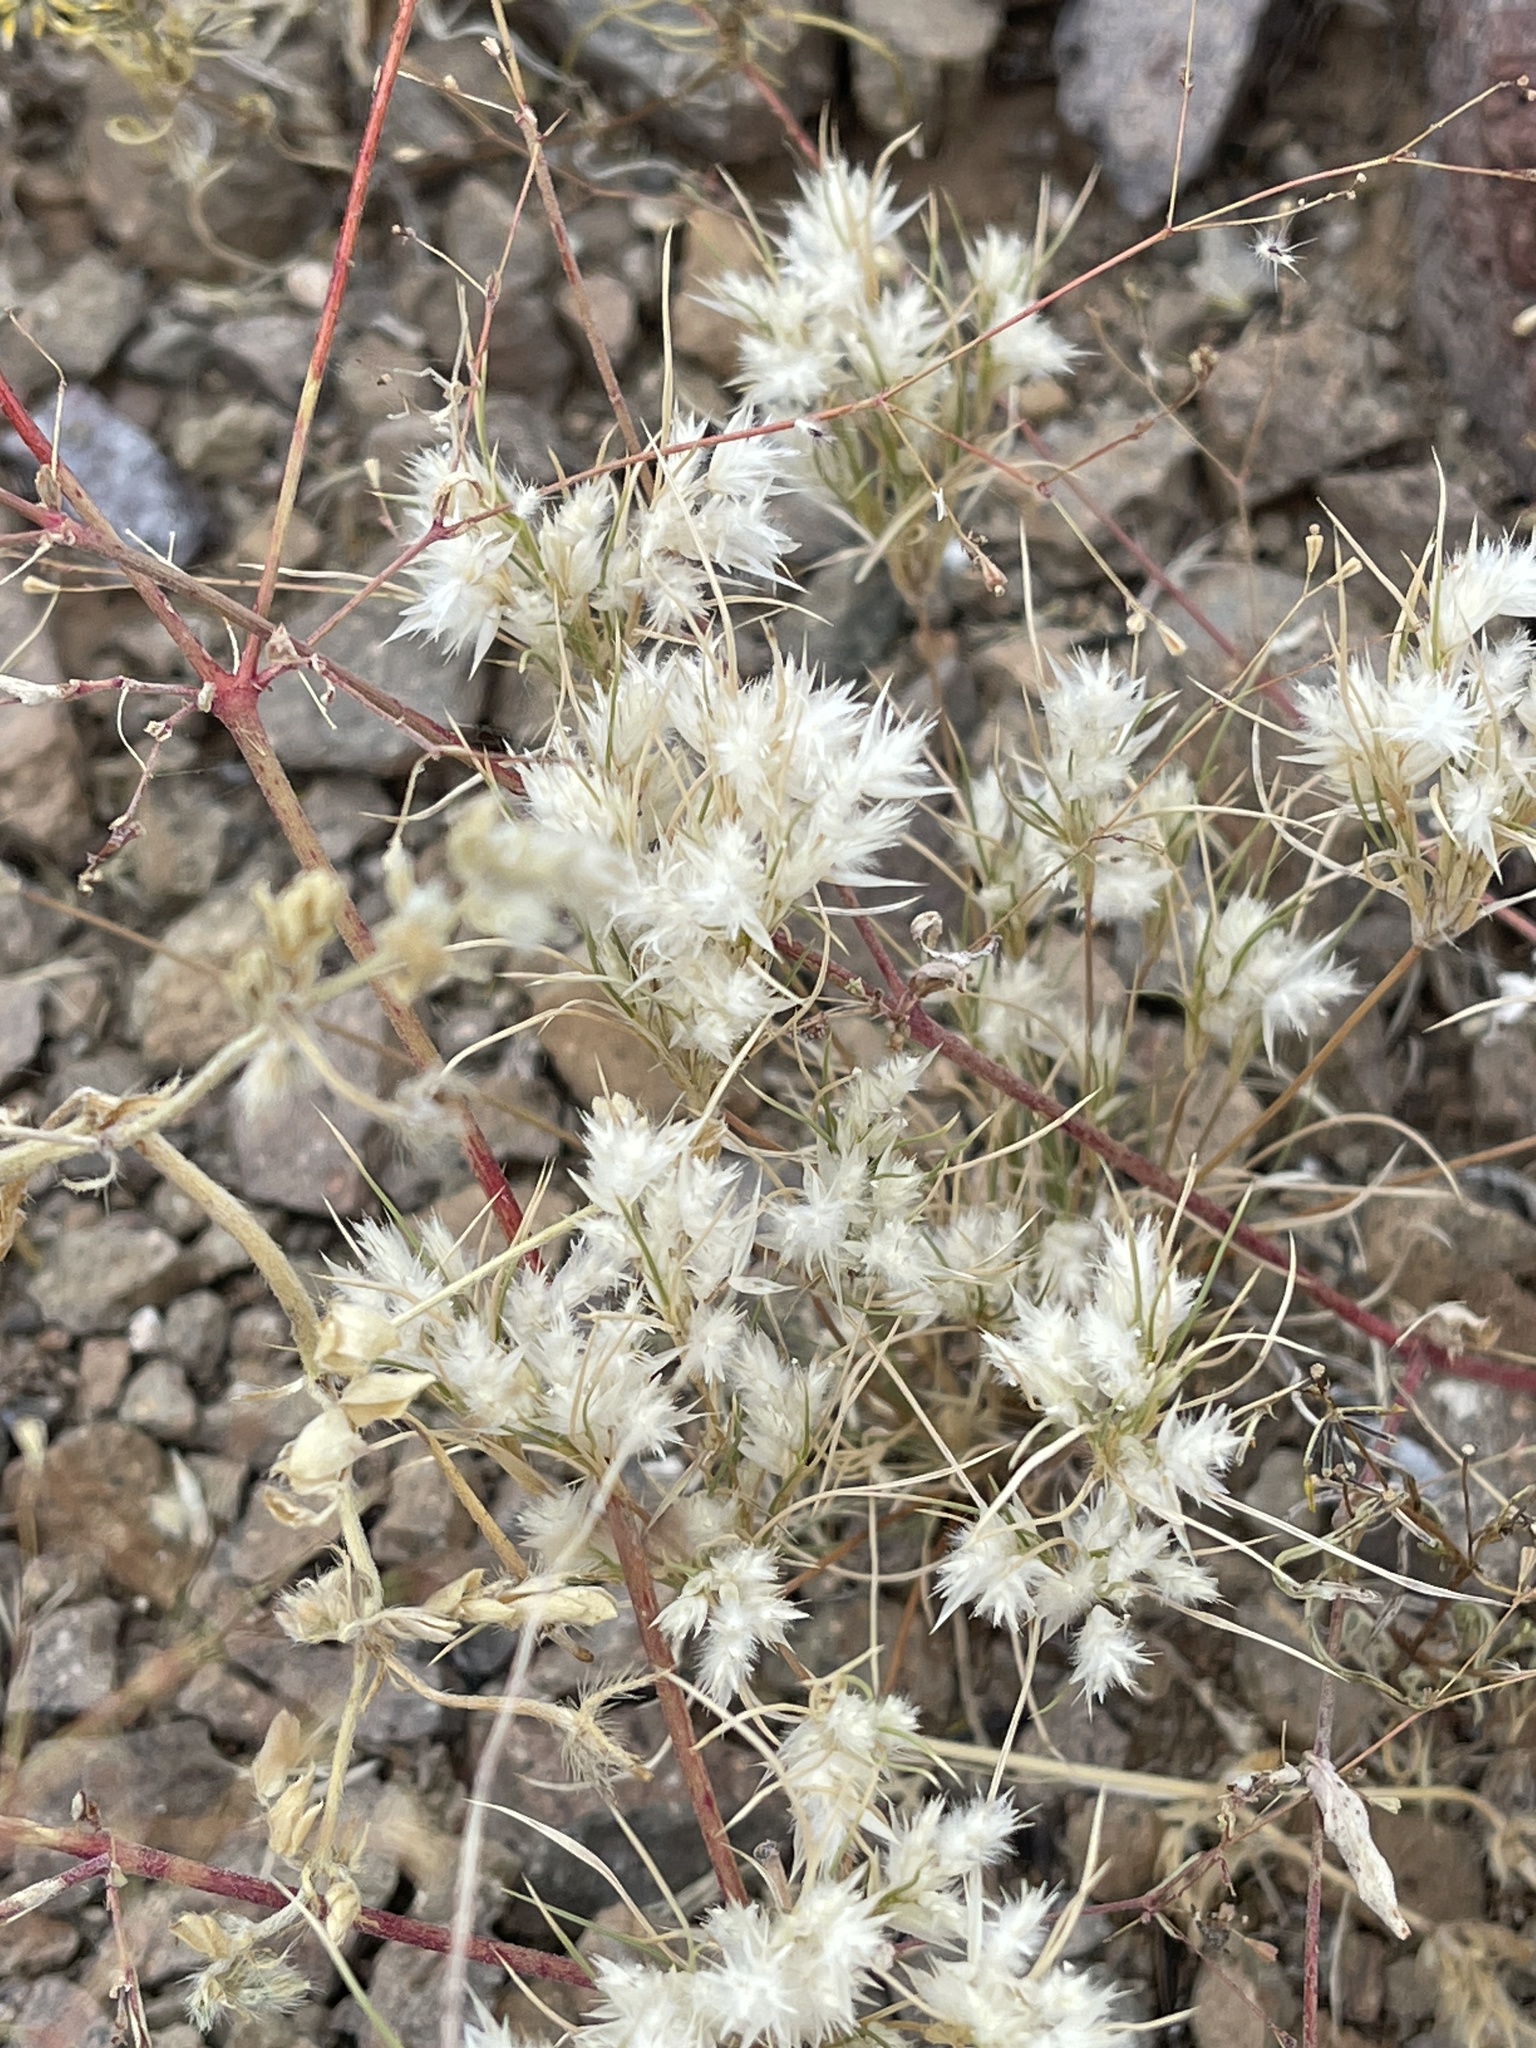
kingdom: Plantae
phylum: Tracheophyta
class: Liliopsida
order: Poales
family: Poaceae
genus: Dasyochloa
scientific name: Dasyochloa pulchella
